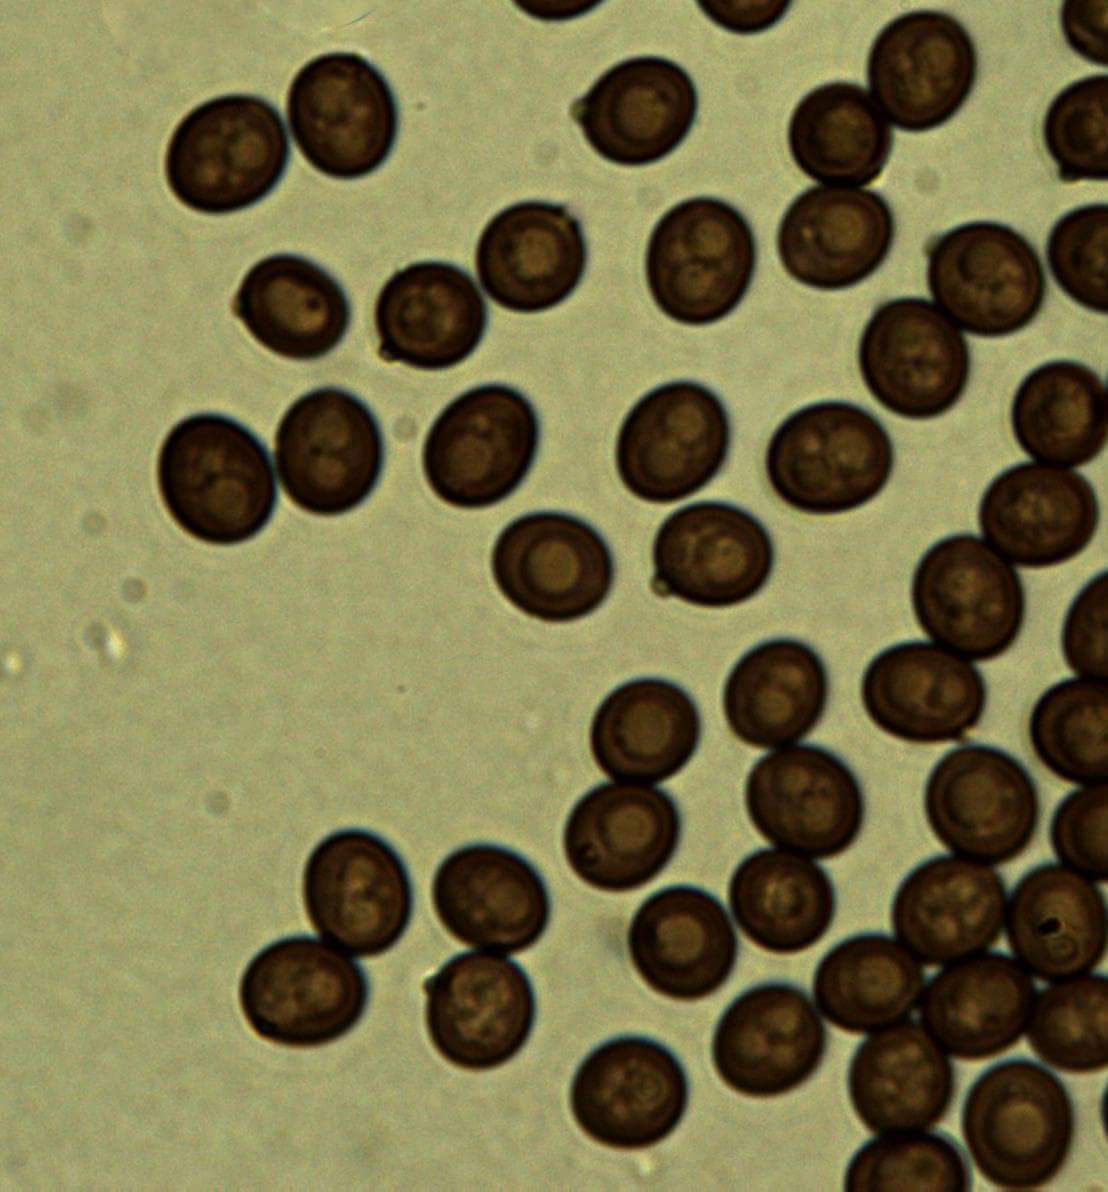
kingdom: Fungi
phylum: Basidiomycota
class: Agaricomycetes
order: Agaricales
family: Agaricaceae
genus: Agaricus
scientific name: Agaricus gennadii
